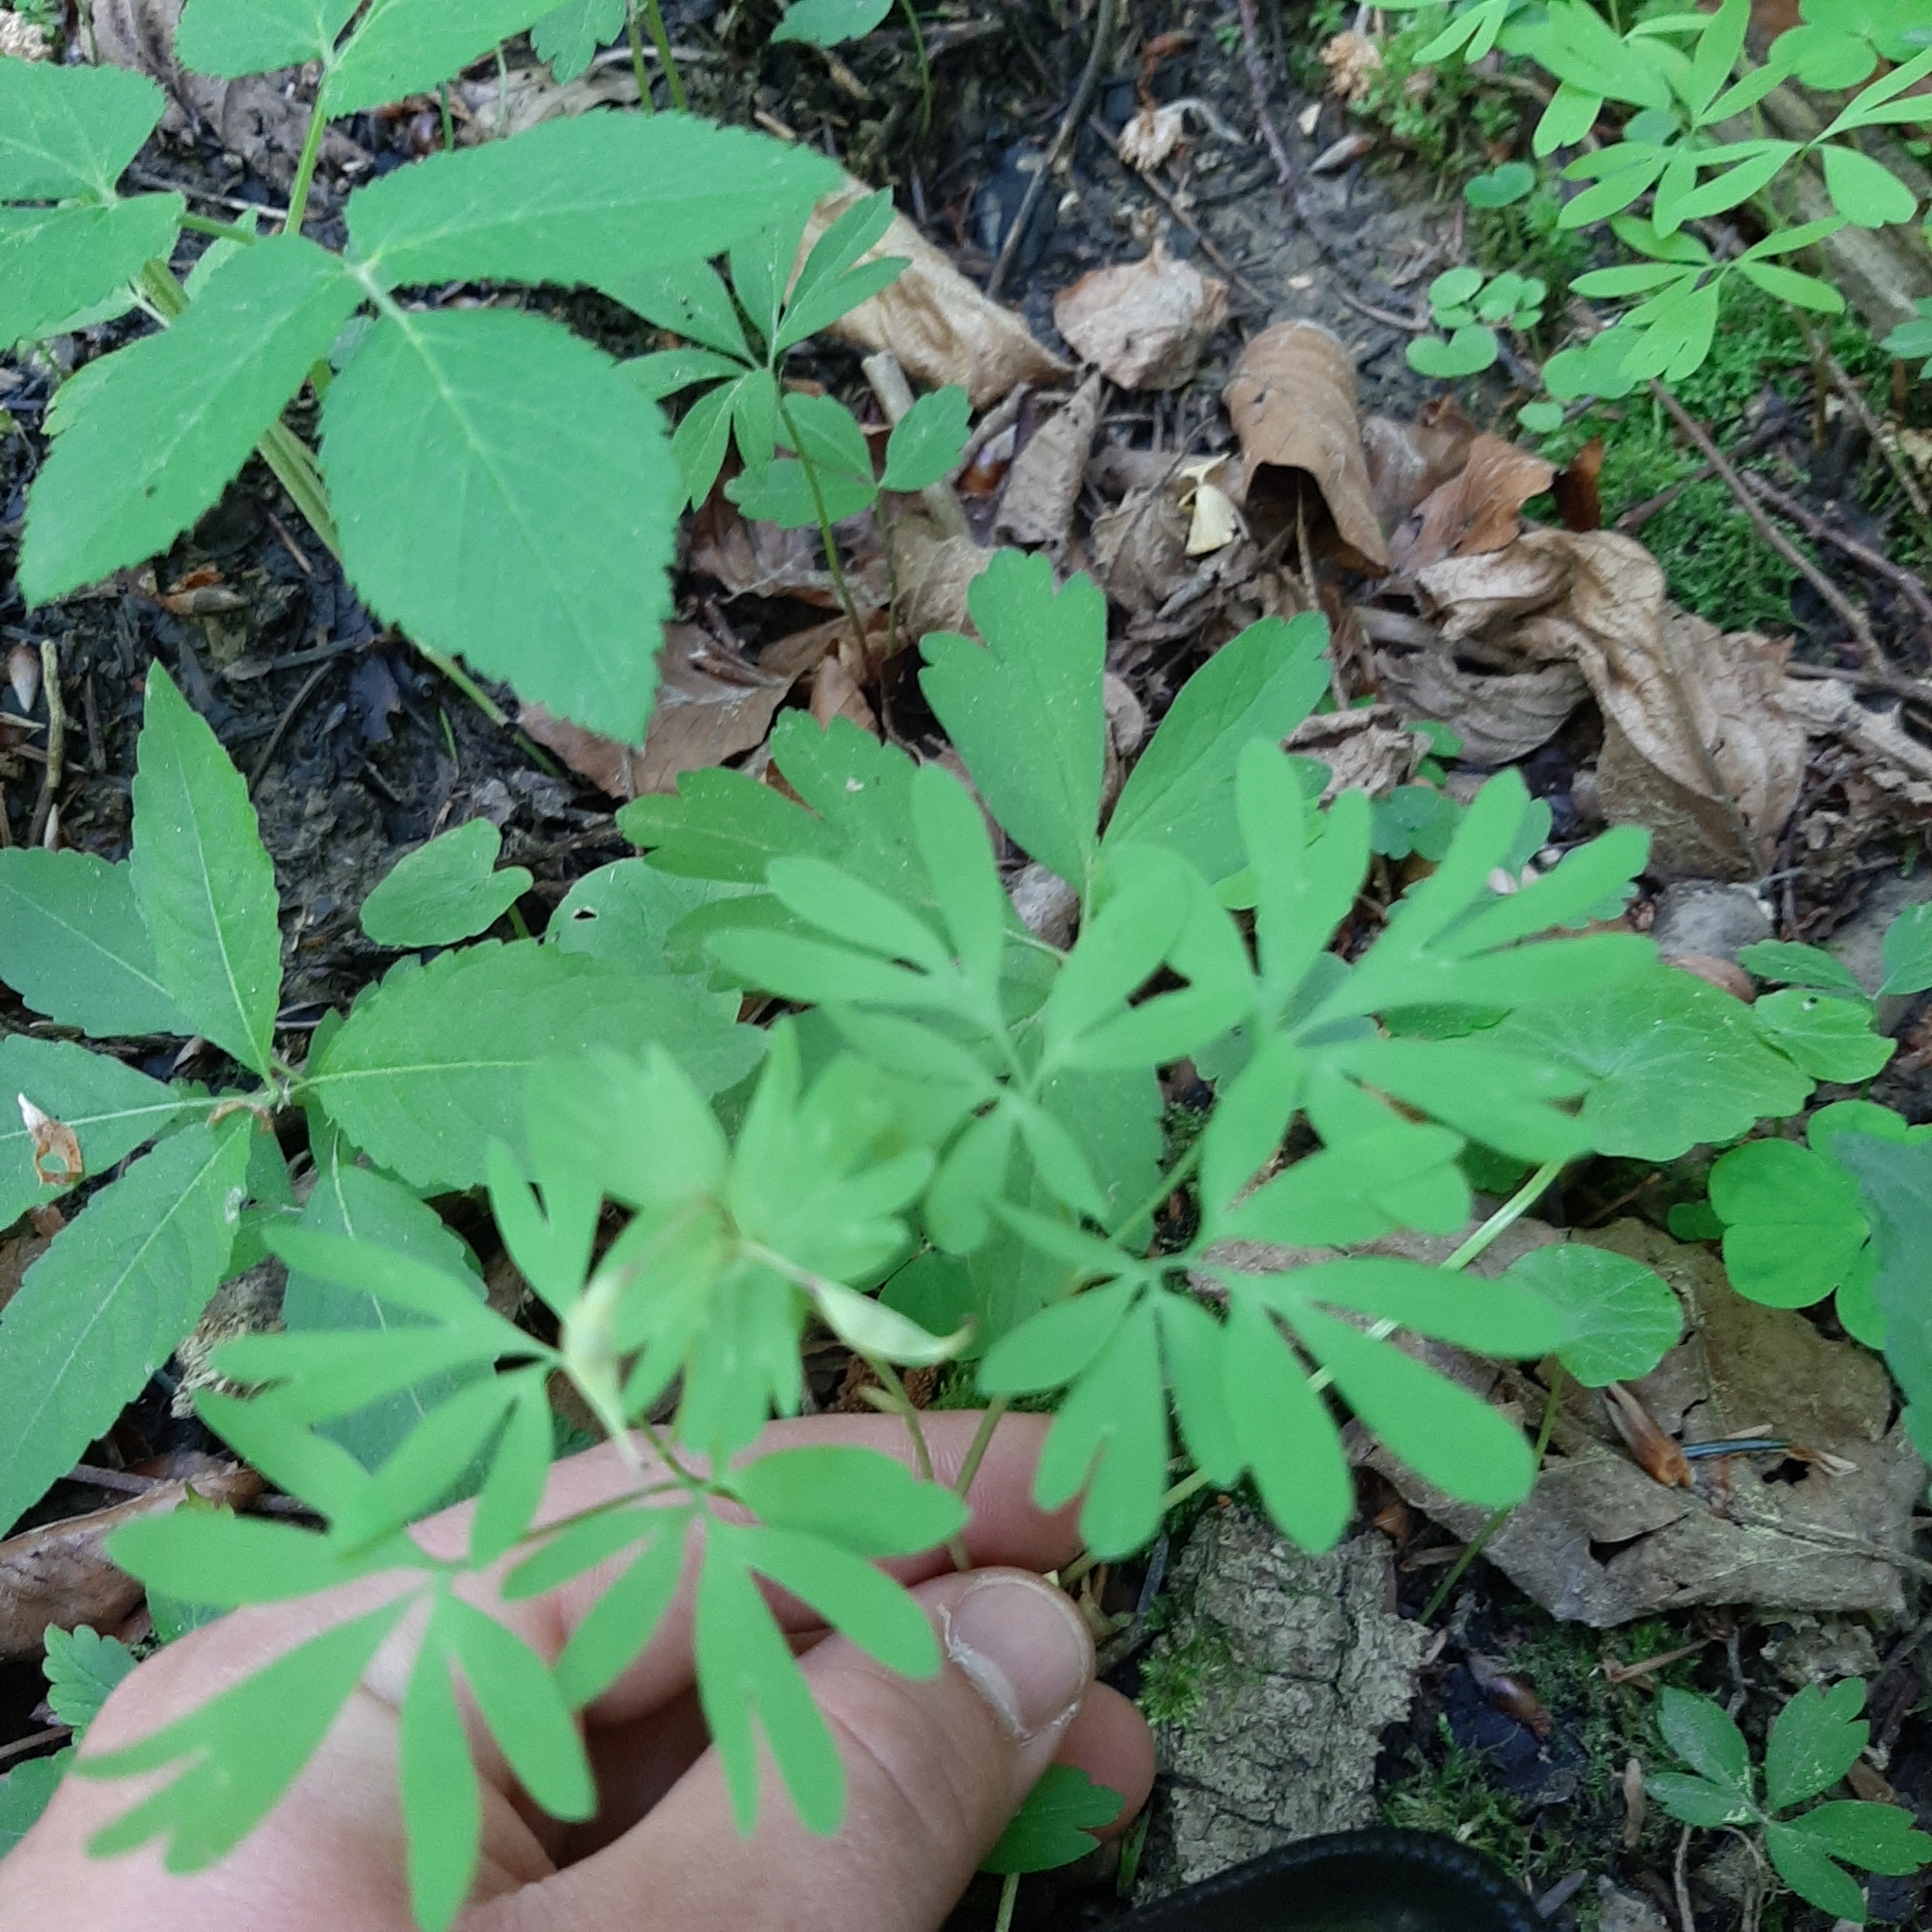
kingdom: Plantae
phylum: Tracheophyta
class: Magnoliopsida
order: Ranunculales
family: Papaveraceae
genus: Corydalis
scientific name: Corydalis solida
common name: Bird-in-a-bush
